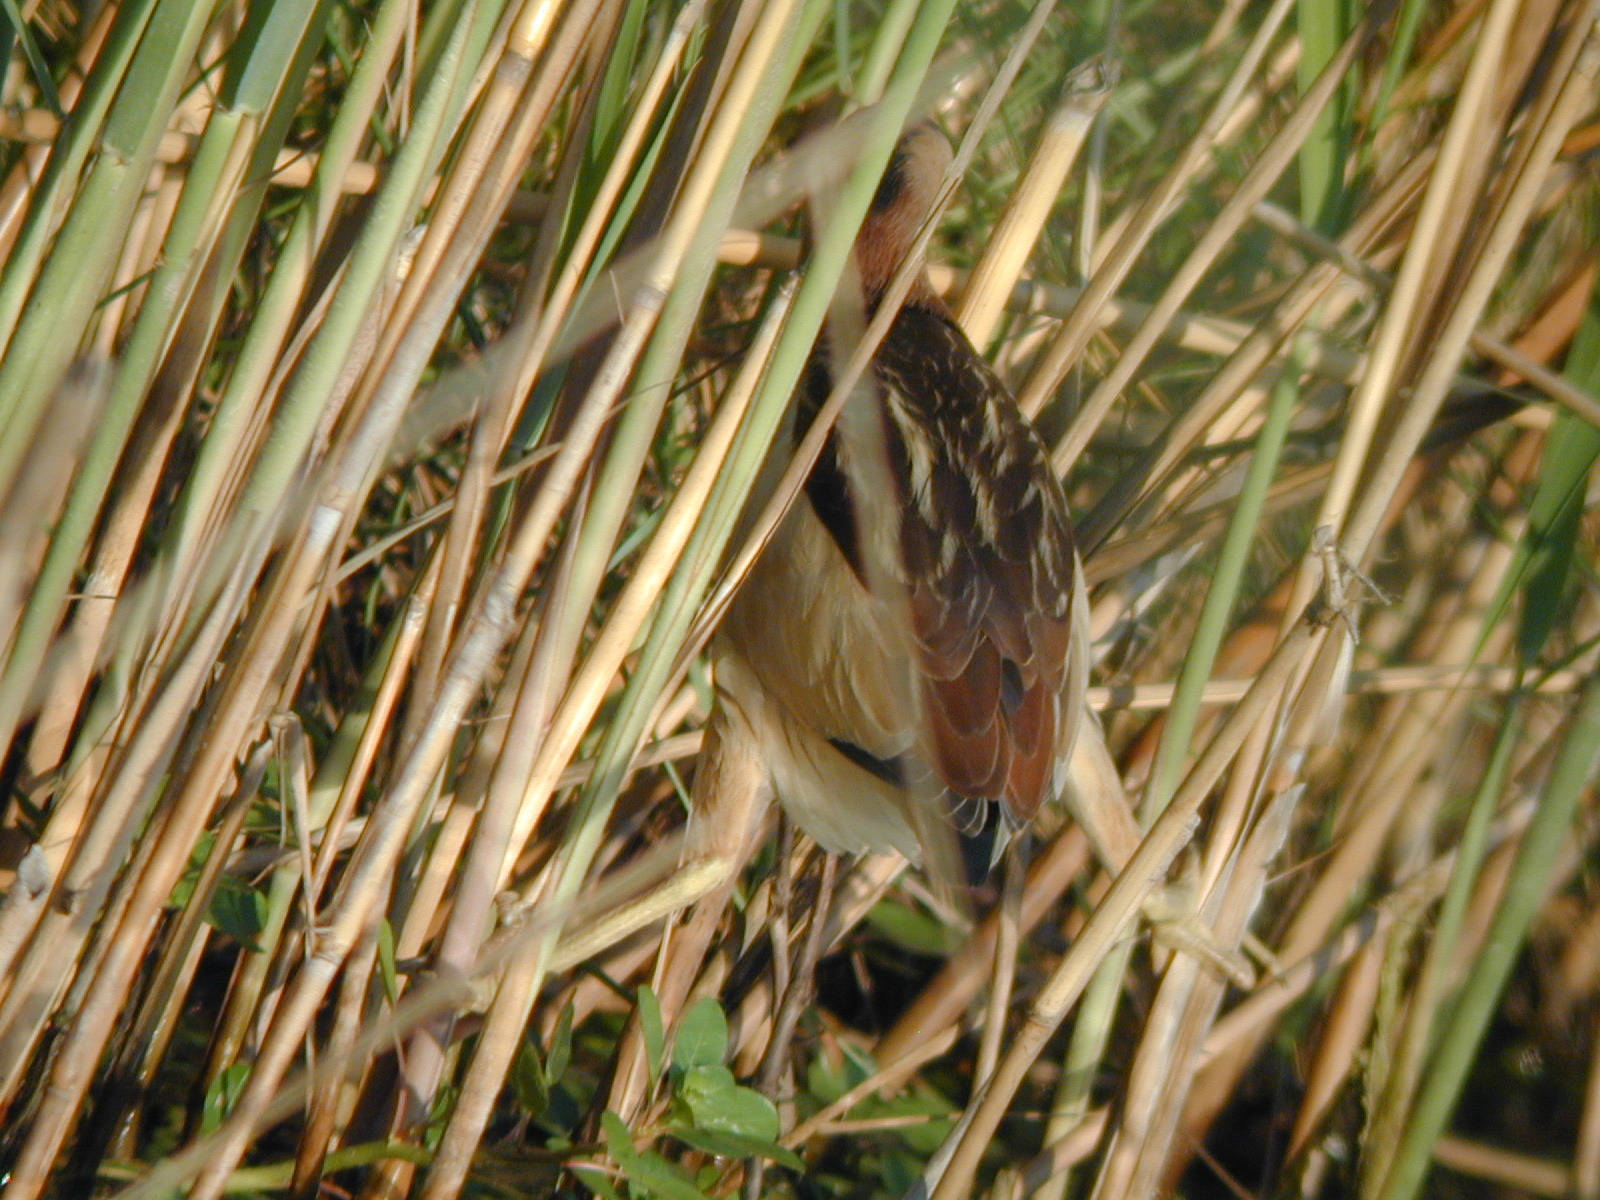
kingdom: Animalia
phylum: Chordata
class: Aves
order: Pelecaniformes
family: Ardeidae
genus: Ixobrychus
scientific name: Ixobrychus minutus
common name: Little bittern
